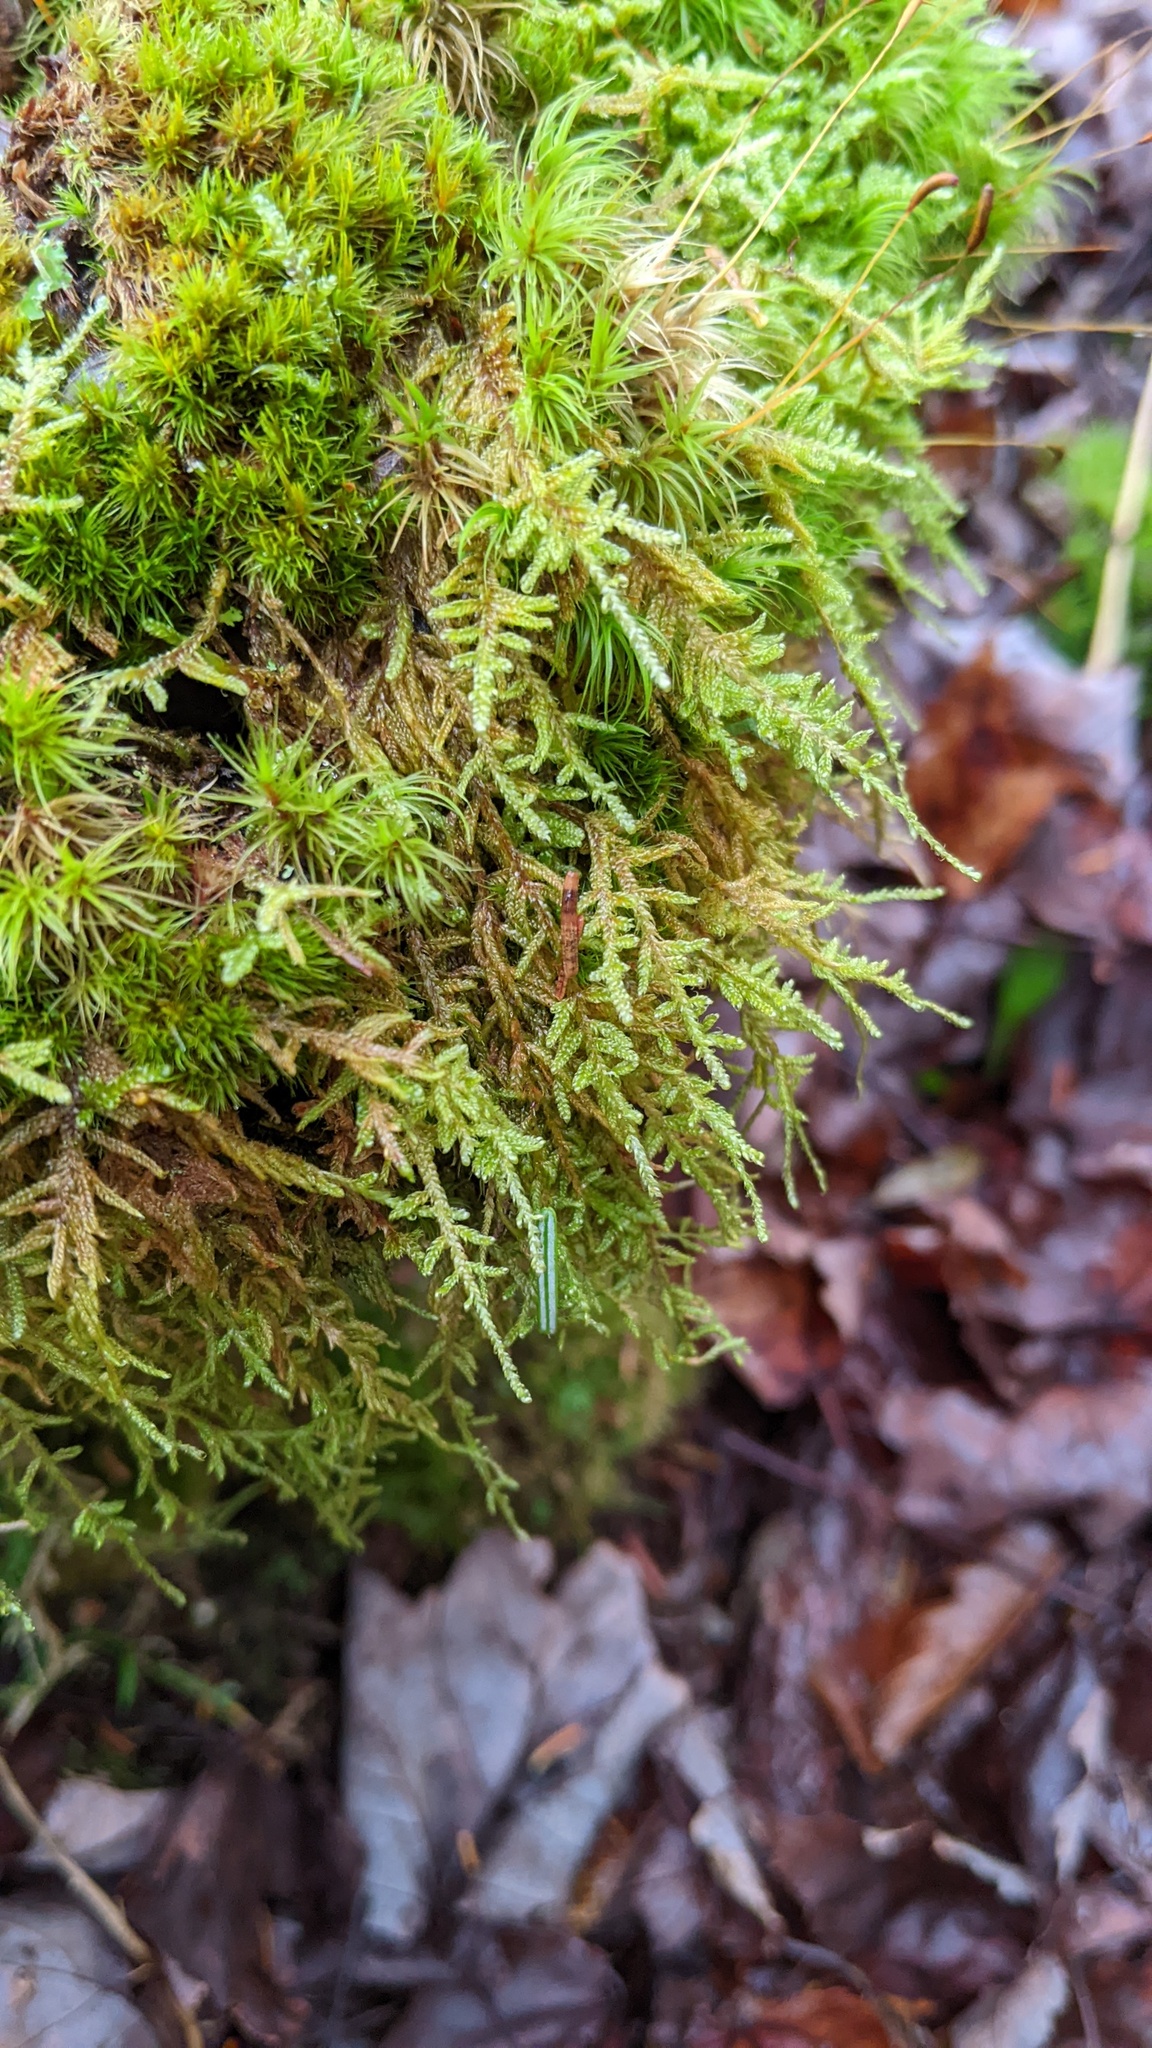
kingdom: Plantae
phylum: Bryophyta
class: Bryopsida
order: Hypnales
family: Callicladiaceae
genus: Callicladium
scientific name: Callicladium imponens
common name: Brocade moss
